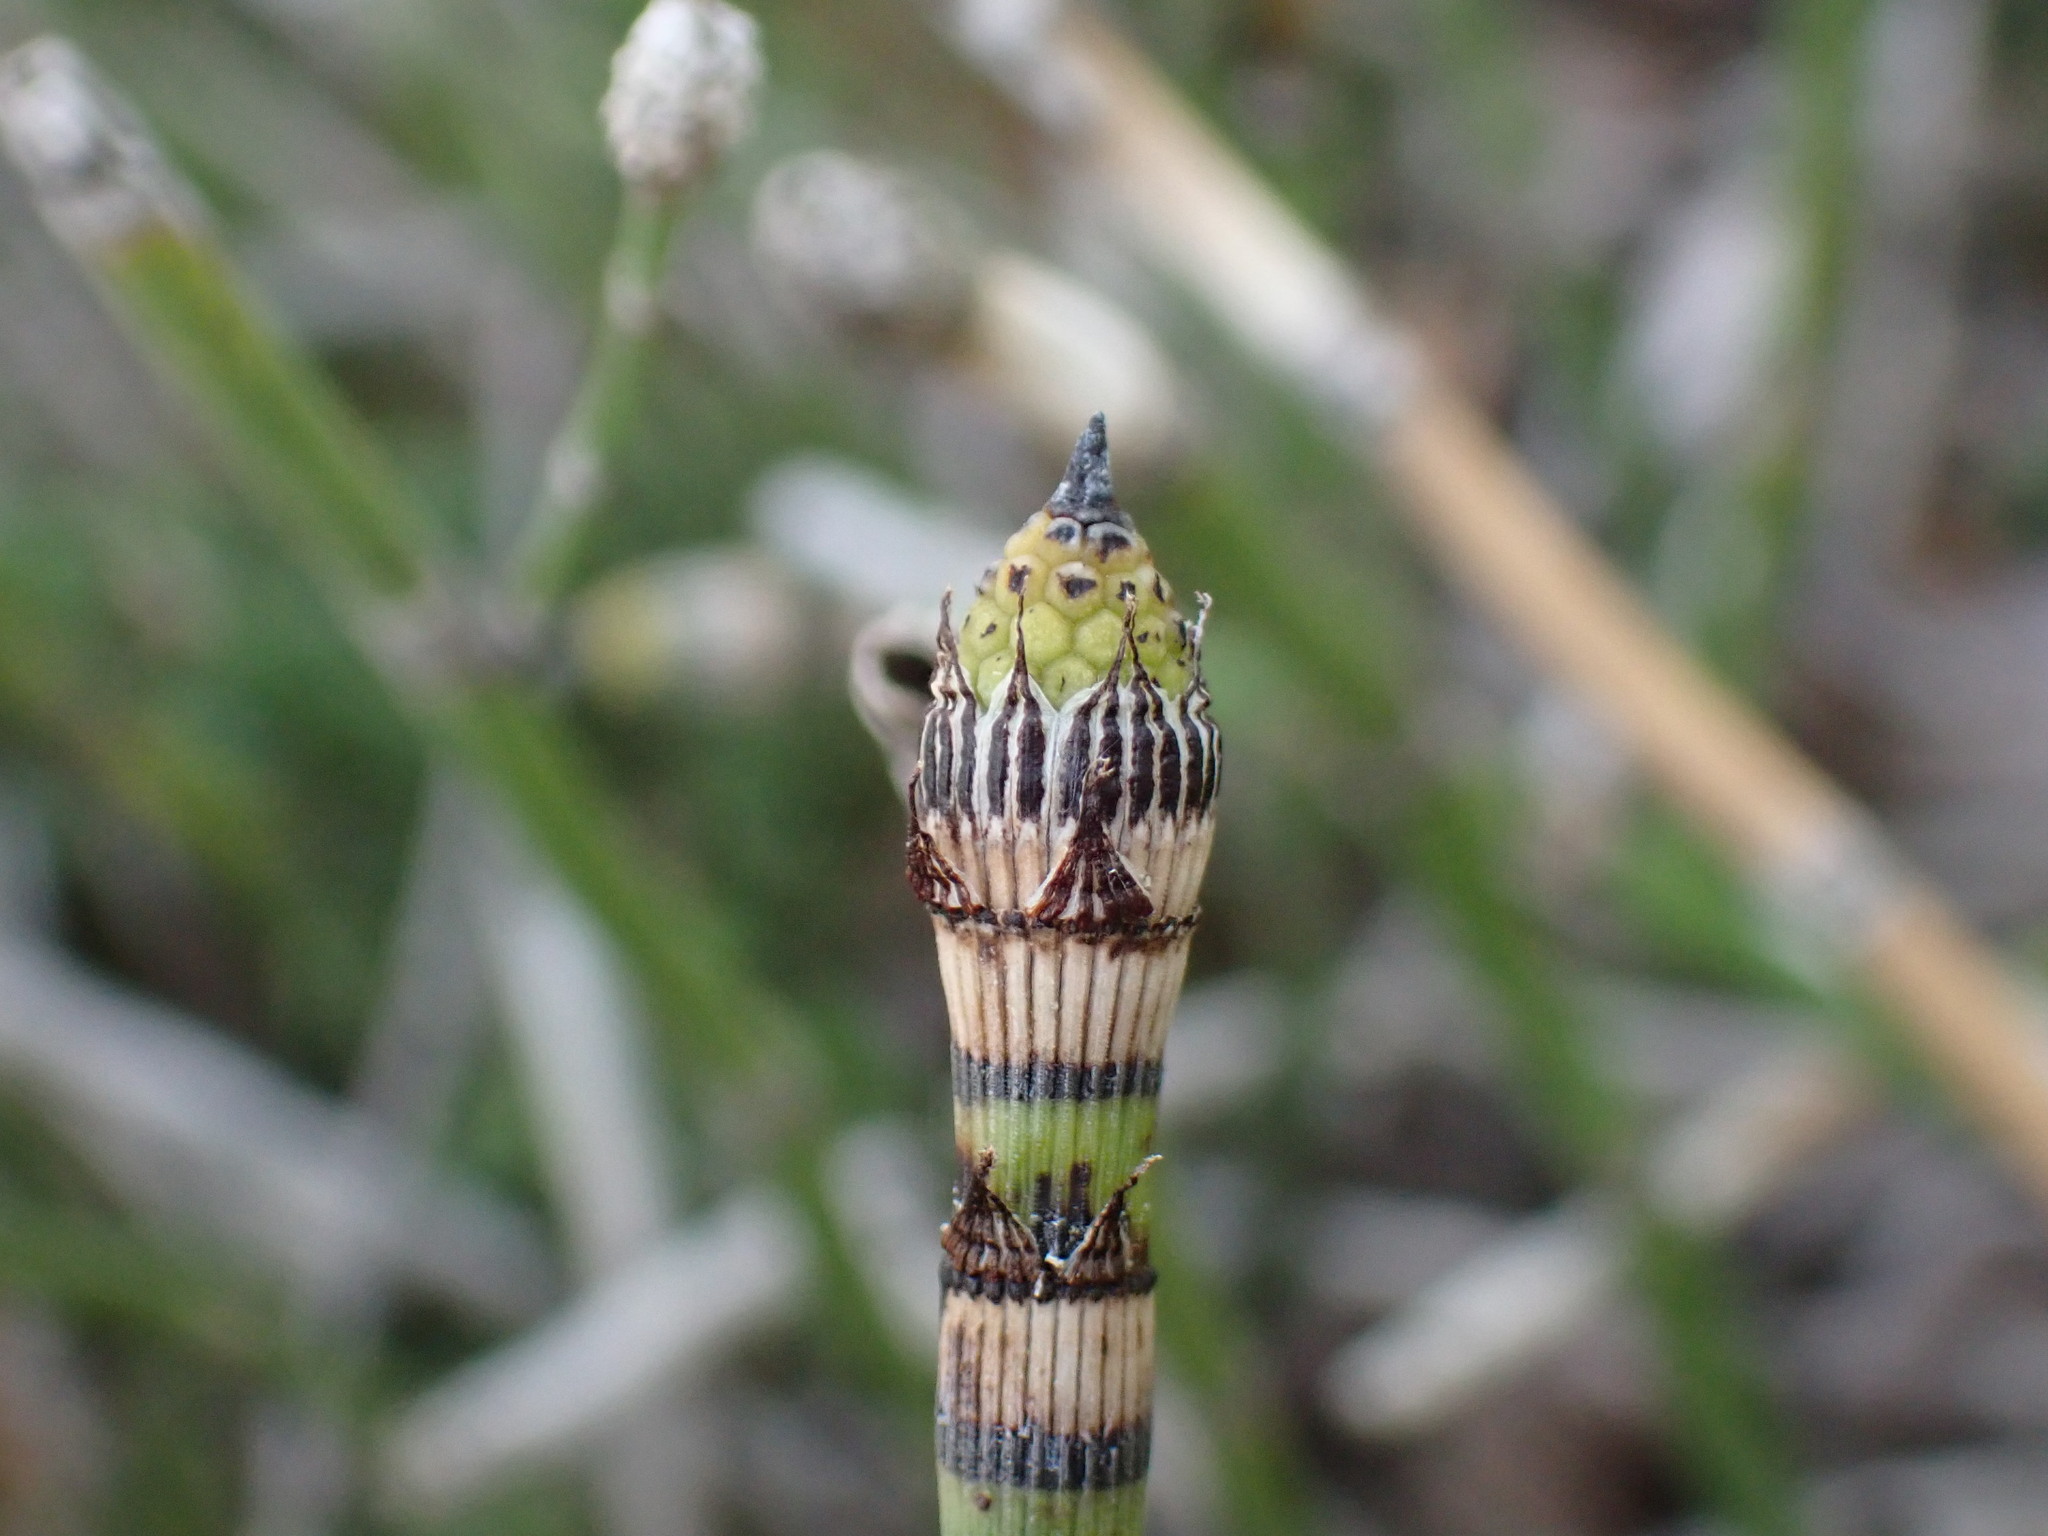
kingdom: Plantae
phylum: Tracheophyta
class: Polypodiopsida
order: Equisetales
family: Equisetaceae
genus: Equisetum
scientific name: Equisetum hyemale
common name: Rough horsetail
